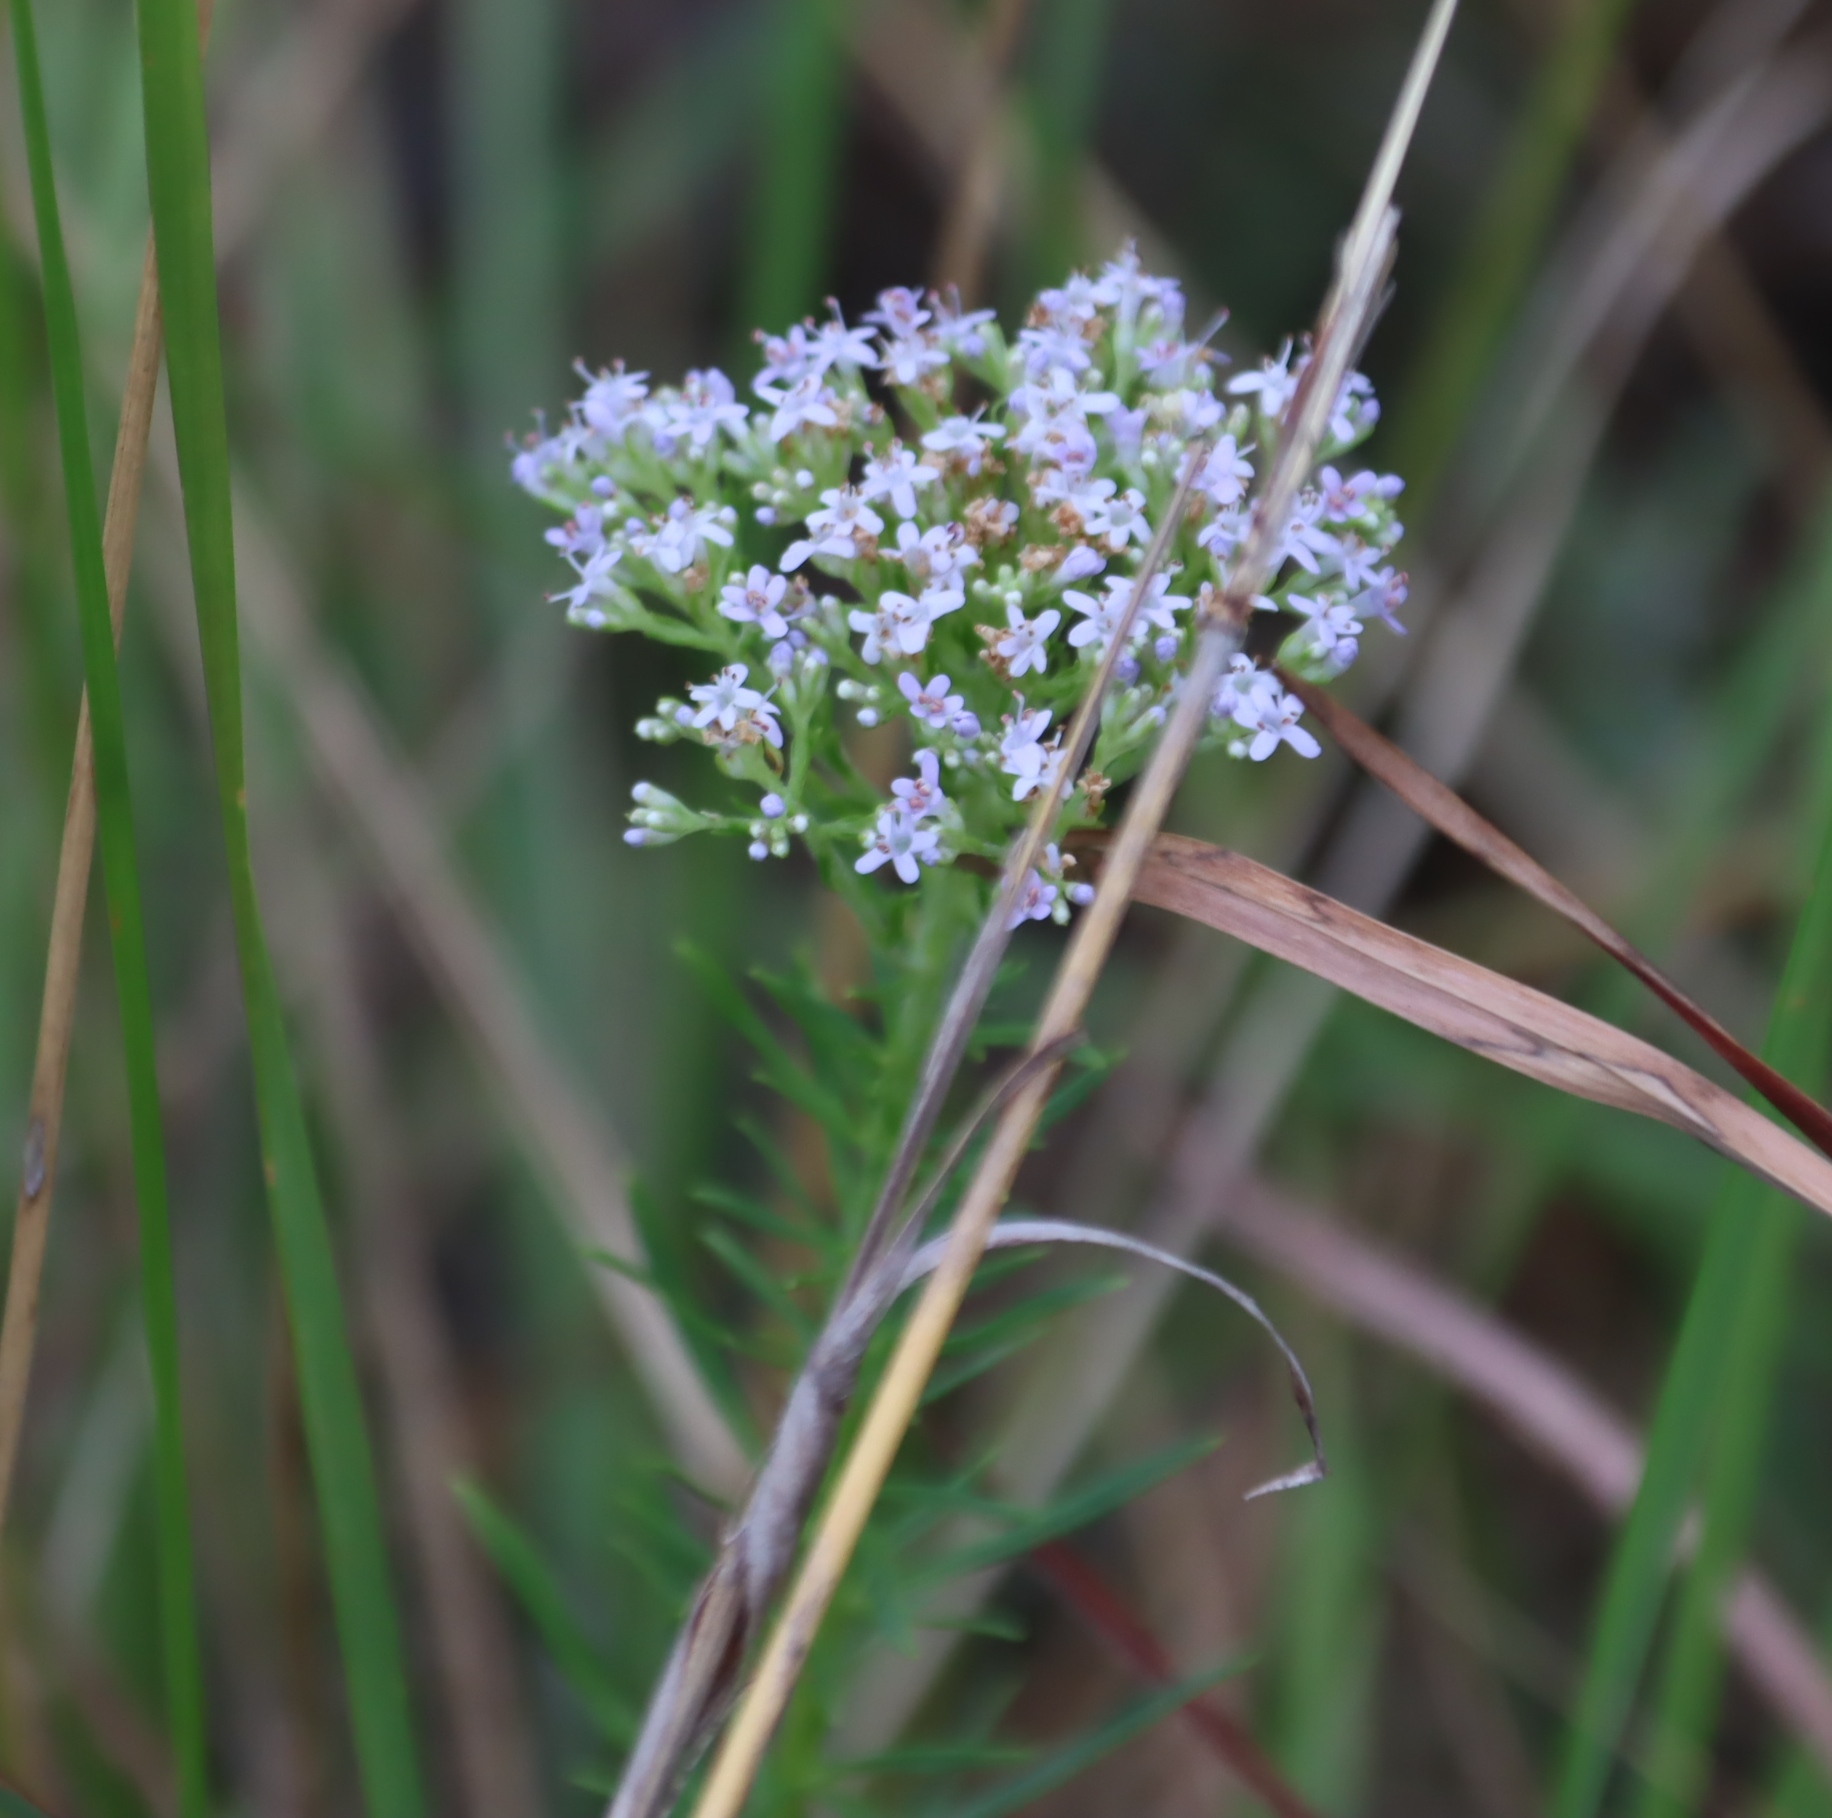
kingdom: Plantae
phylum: Tracheophyta
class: Magnoliopsida
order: Lamiales
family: Scrophulariaceae
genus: Tetraselago
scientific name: Tetraselago natalensis
